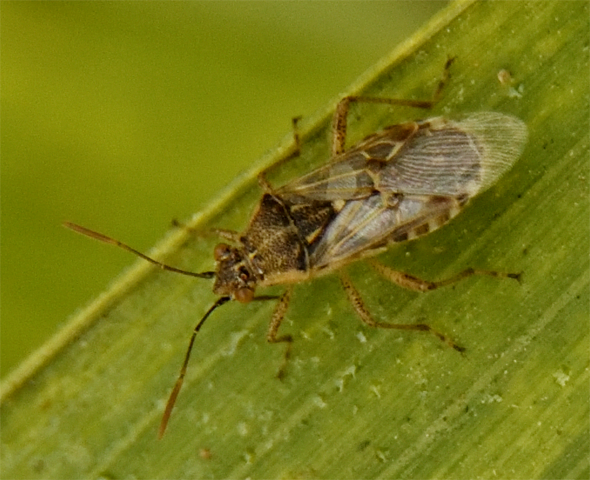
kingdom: Animalia
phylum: Arthropoda
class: Insecta
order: Hemiptera
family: Rhopalidae
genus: Liorhyssus
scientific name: Liorhyssus hyalinus
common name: Scentless plant bug
